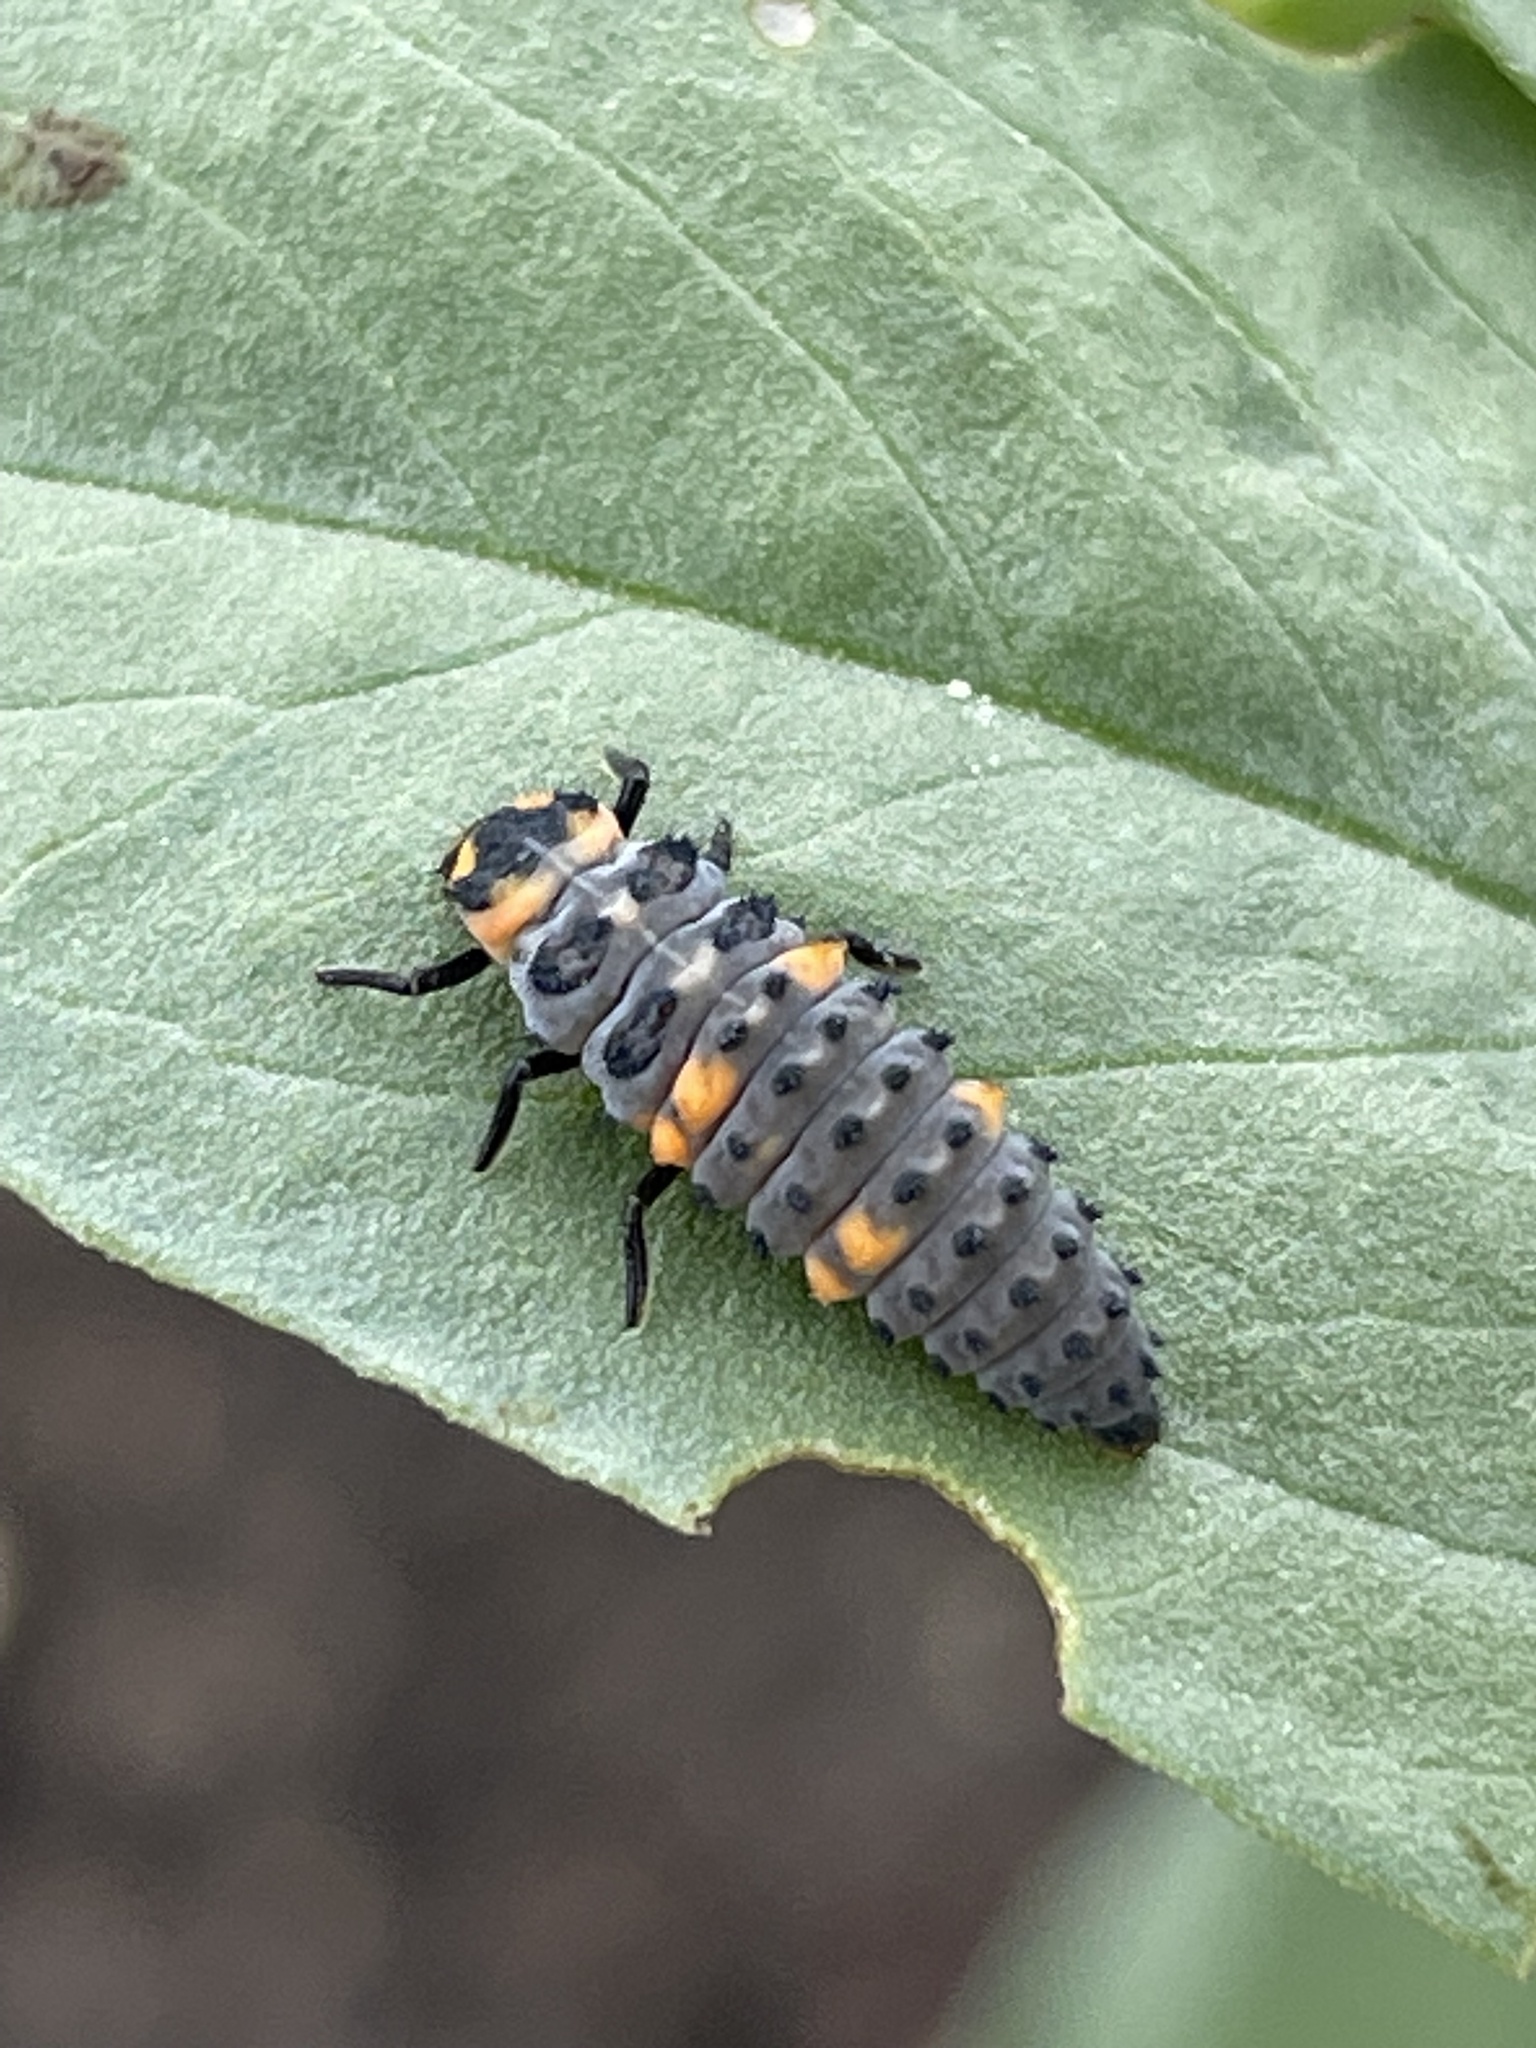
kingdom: Animalia
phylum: Arthropoda
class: Insecta
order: Coleoptera
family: Coccinellidae
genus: Coccinella
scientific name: Coccinella septempunctata
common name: Sevenspotted lady beetle
